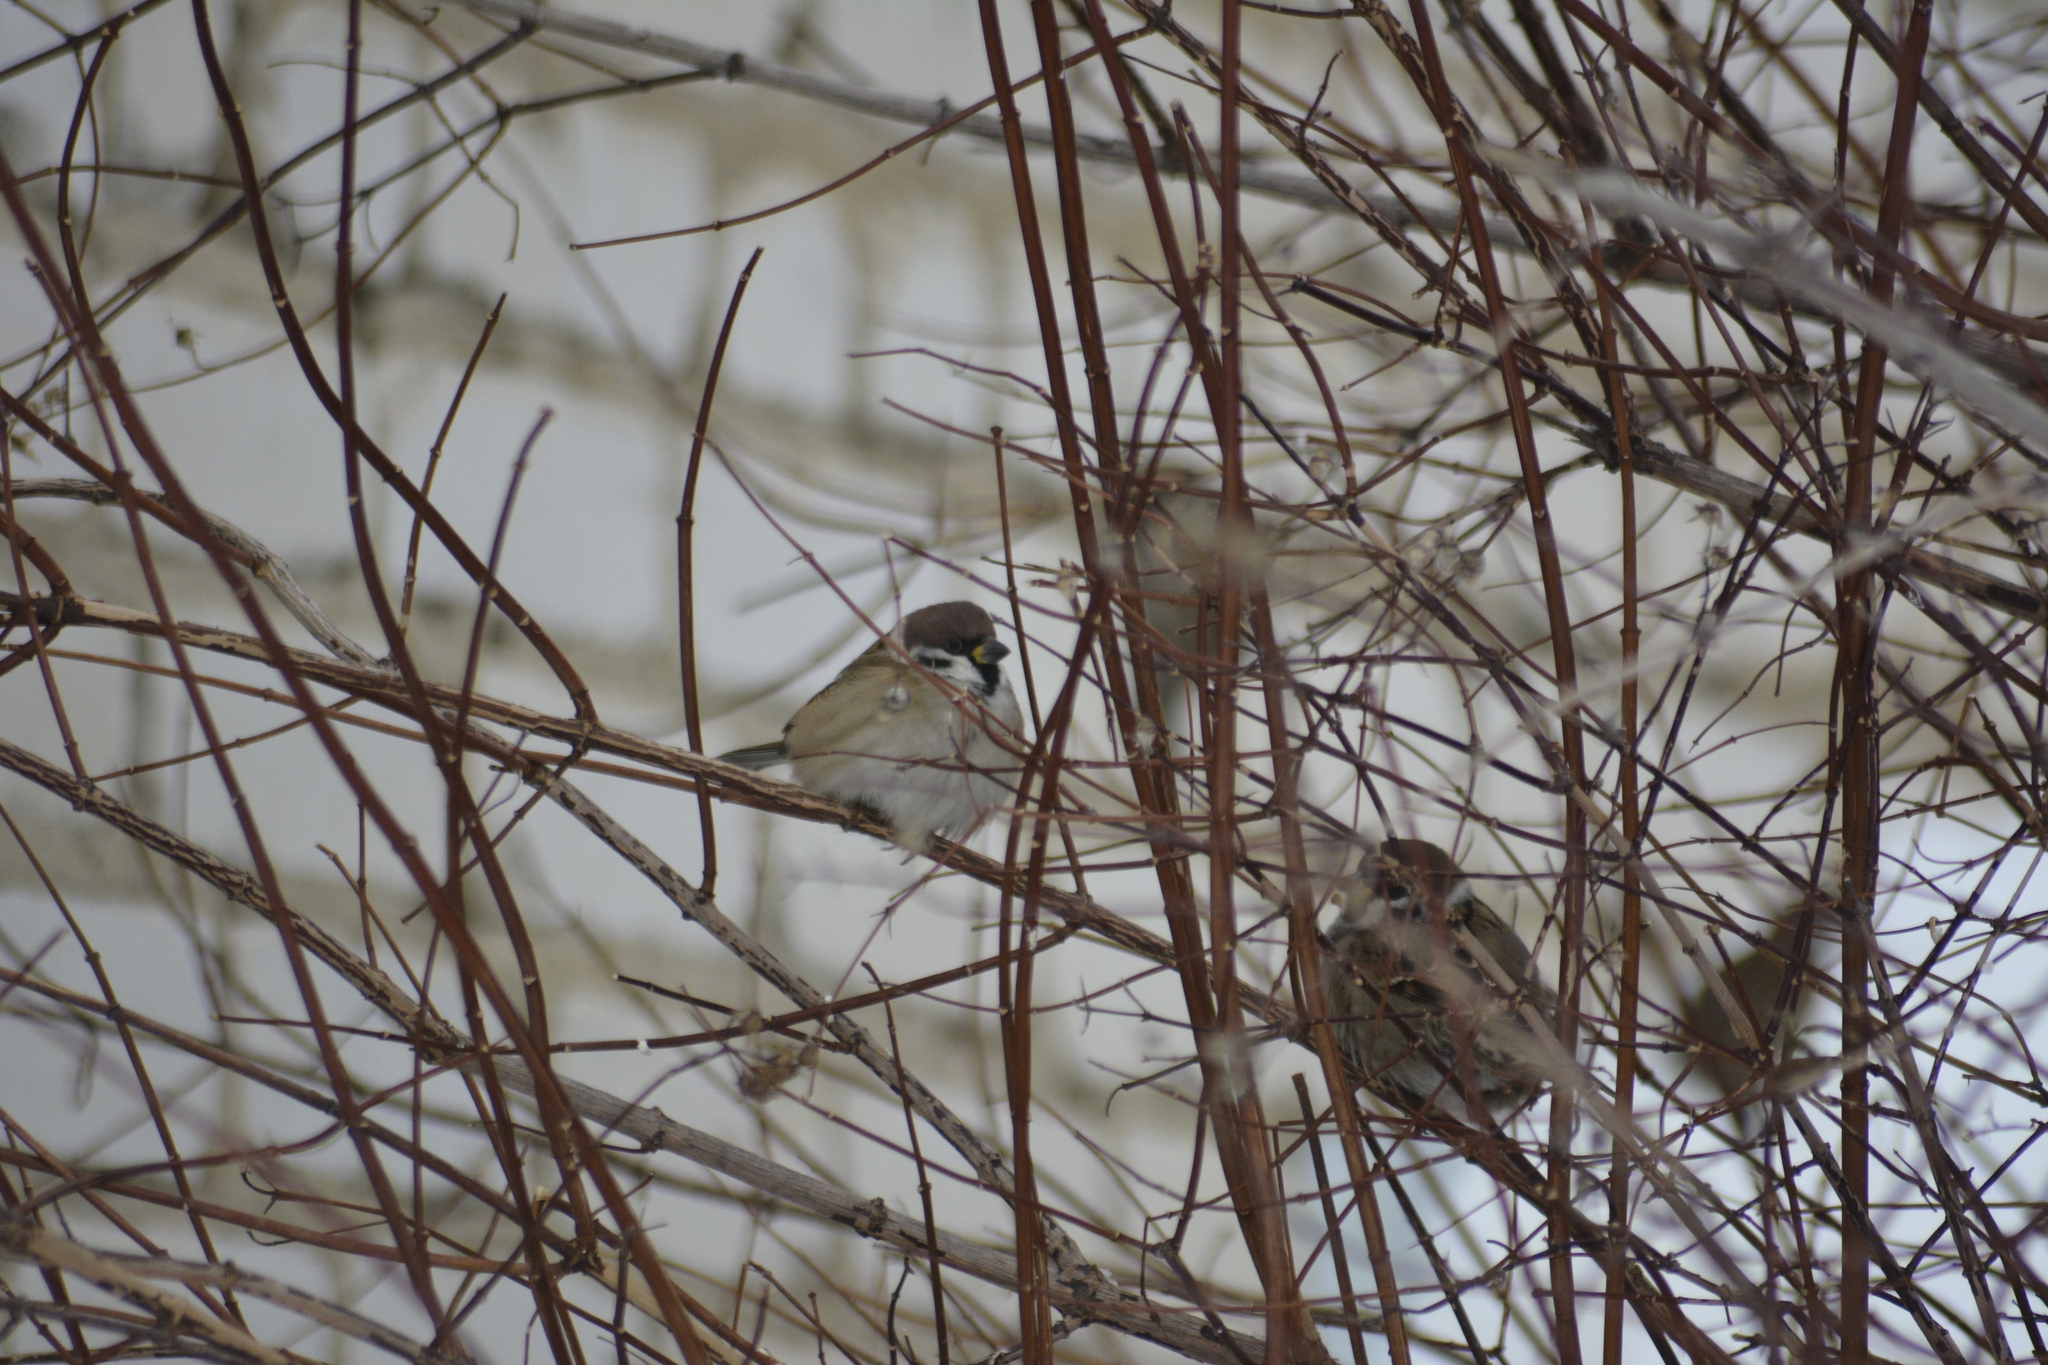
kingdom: Animalia
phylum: Chordata
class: Aves
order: Passeriformes
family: Passeridae
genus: Passer
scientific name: Passer montanus
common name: Eurasian tree sparrow
